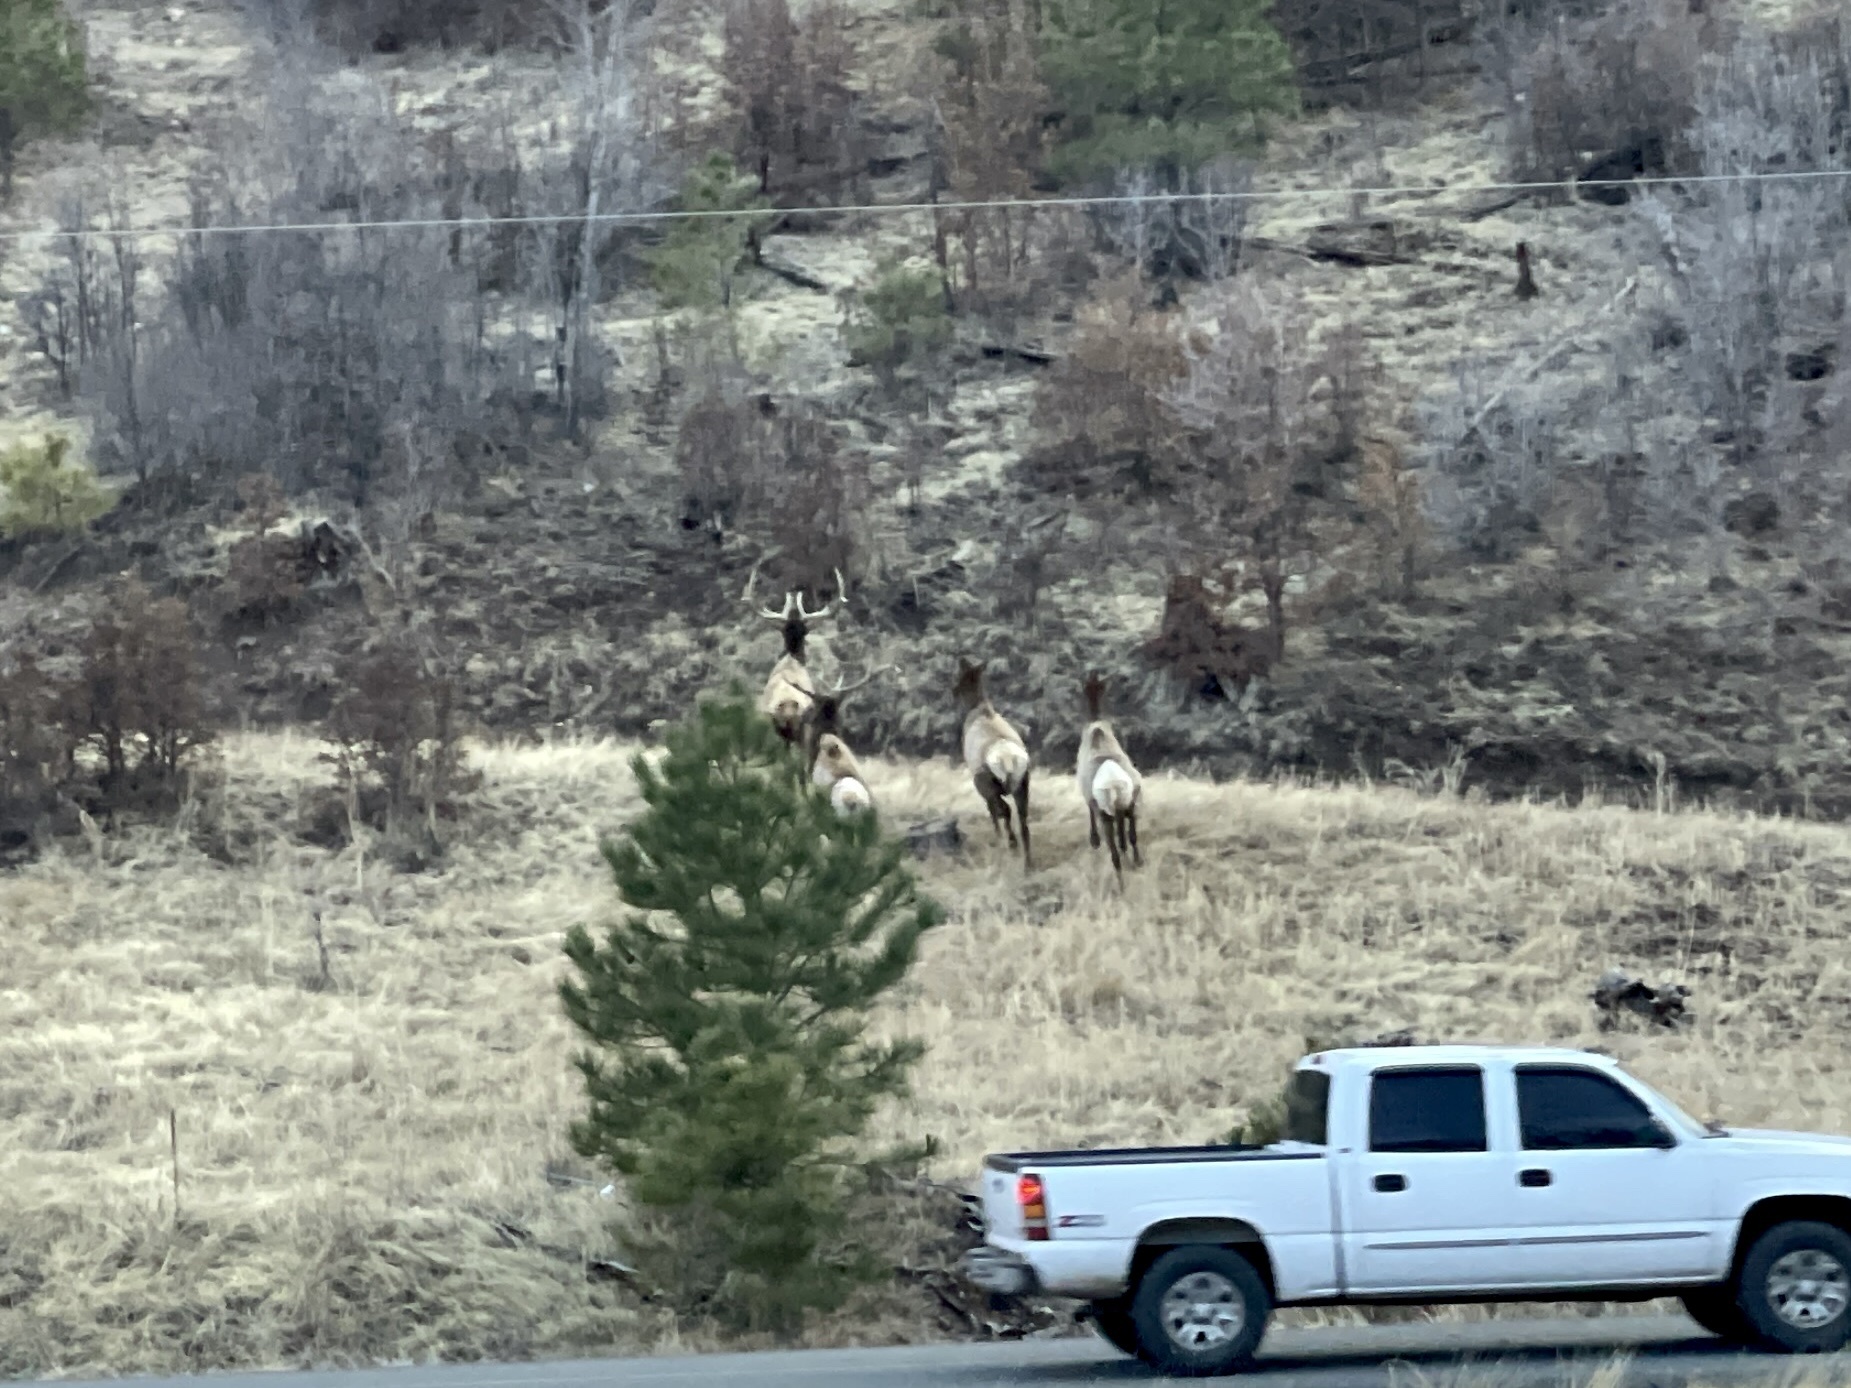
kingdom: Animalia
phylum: Chordata
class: Mammalia
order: Artiodactyla
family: Cervidae
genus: Cervus
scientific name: Cervus elaphus
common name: Red deer
